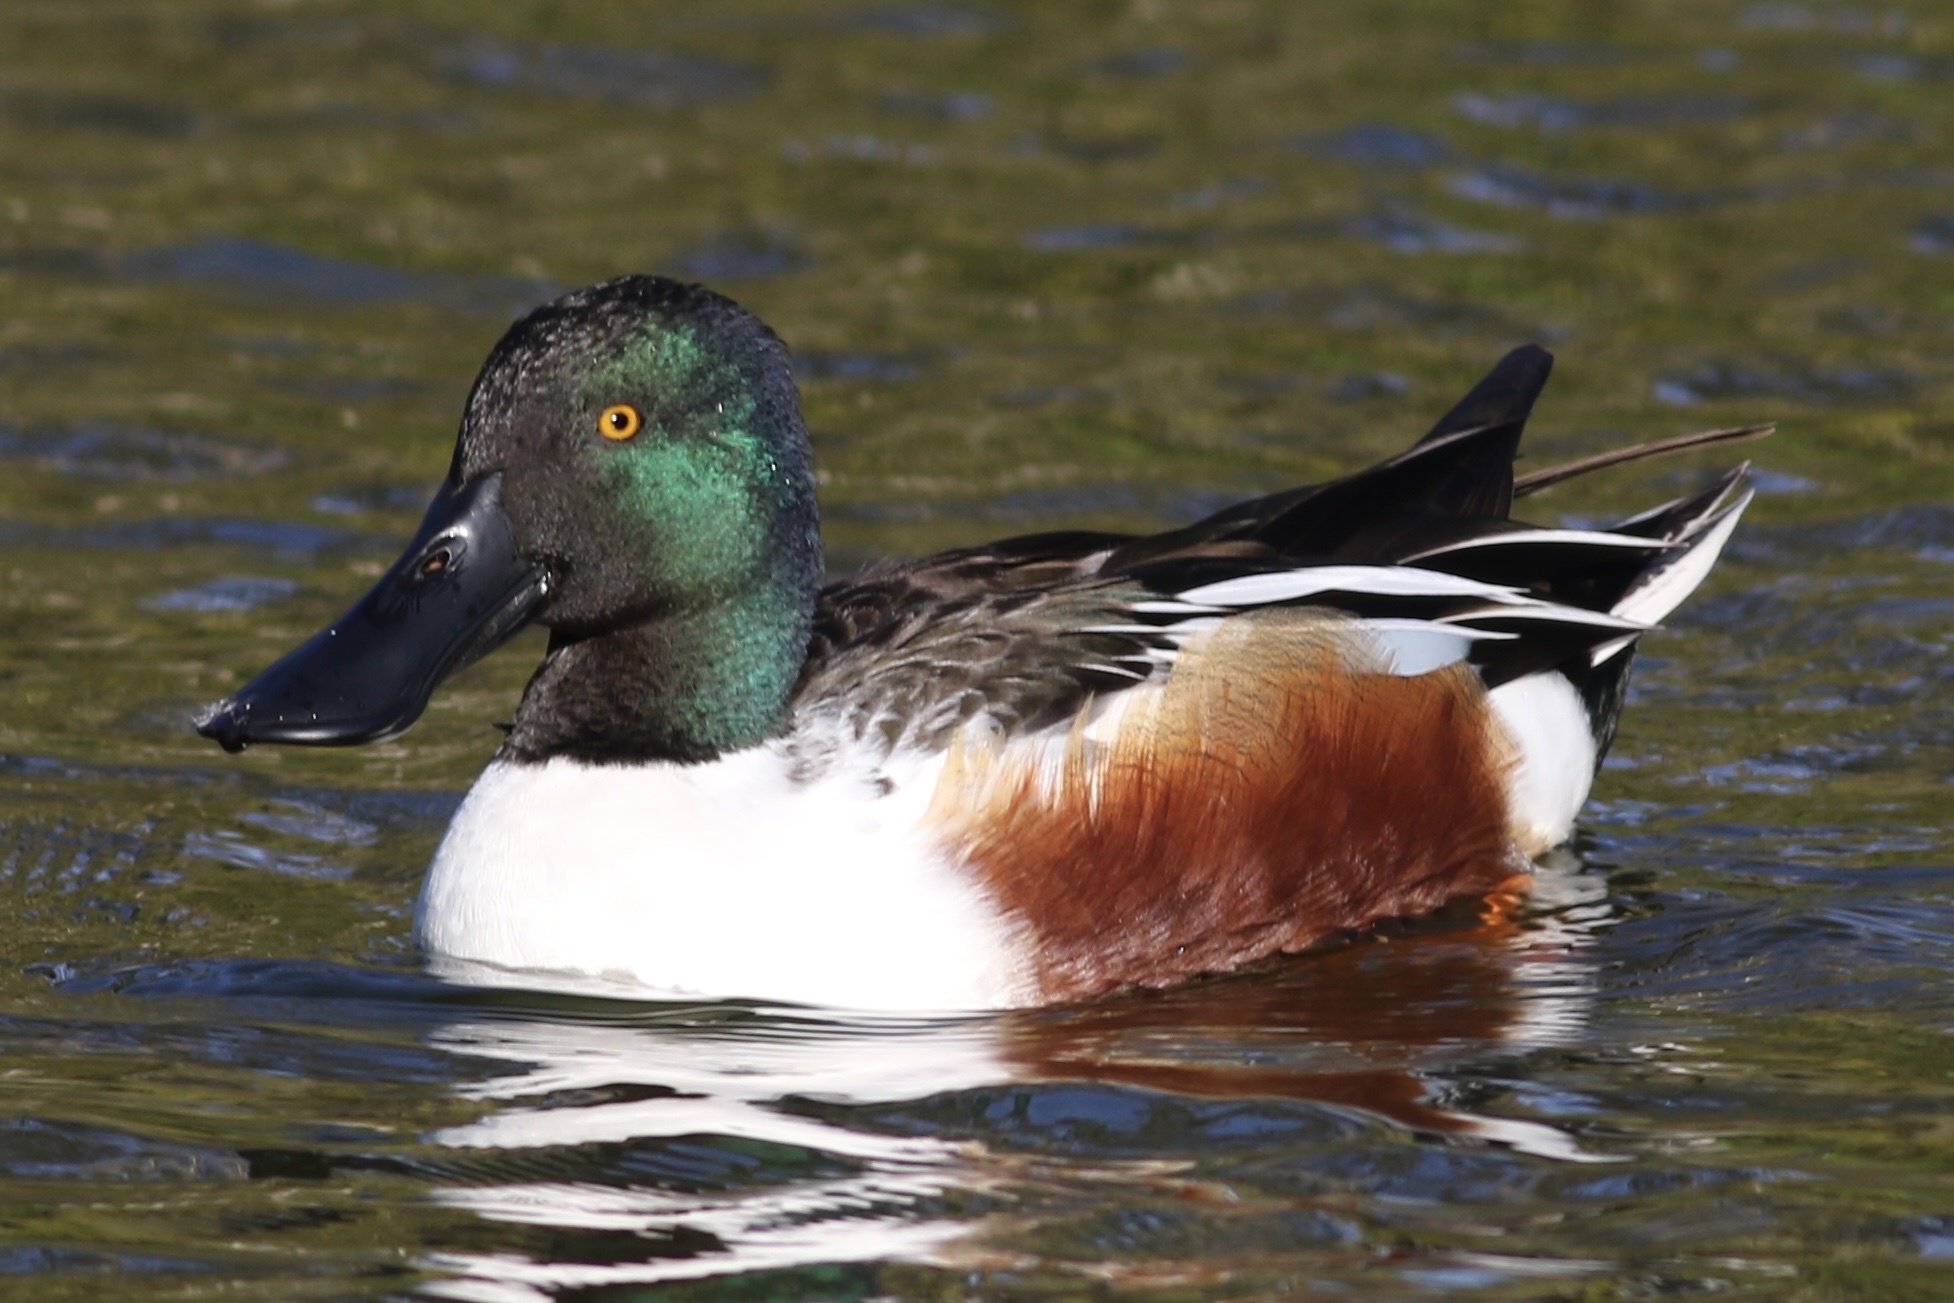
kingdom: Animalia
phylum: Chordata
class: Aves
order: Anseriformes
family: Anatidae
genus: Spatula
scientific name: Spatula clypeata
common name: Northern shoveler
